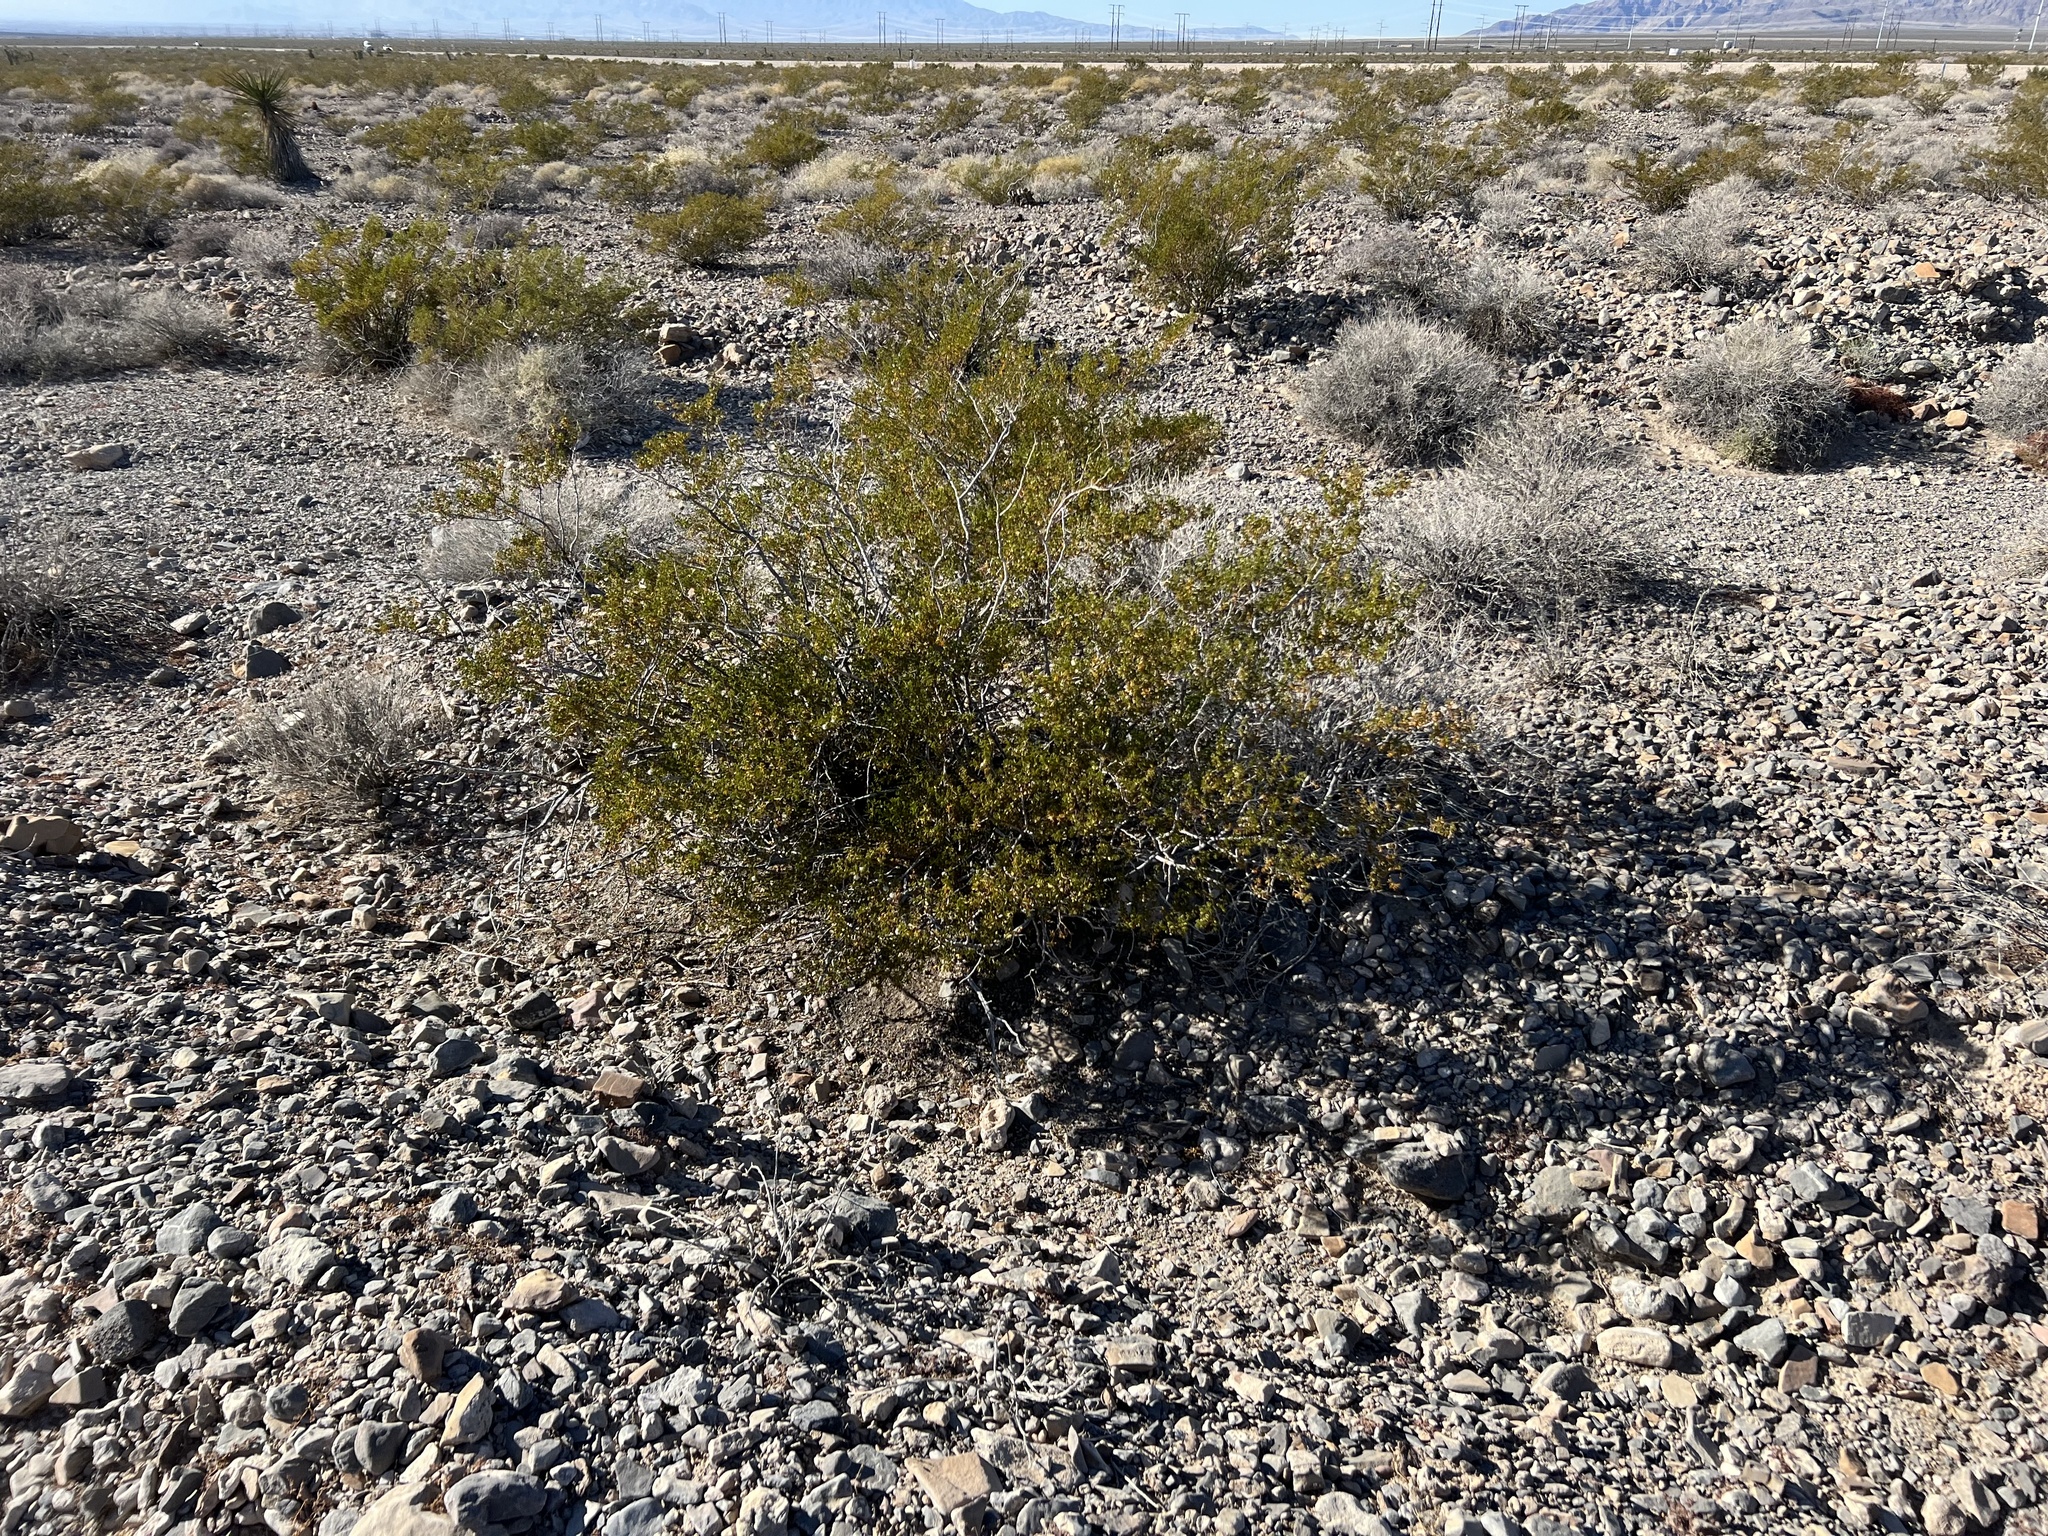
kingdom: Plantae
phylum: Tracheophyta
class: Magnoliopsida
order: Zygophyllales
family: Zygophyllaceae
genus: Larrea
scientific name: Larrea tridentata
